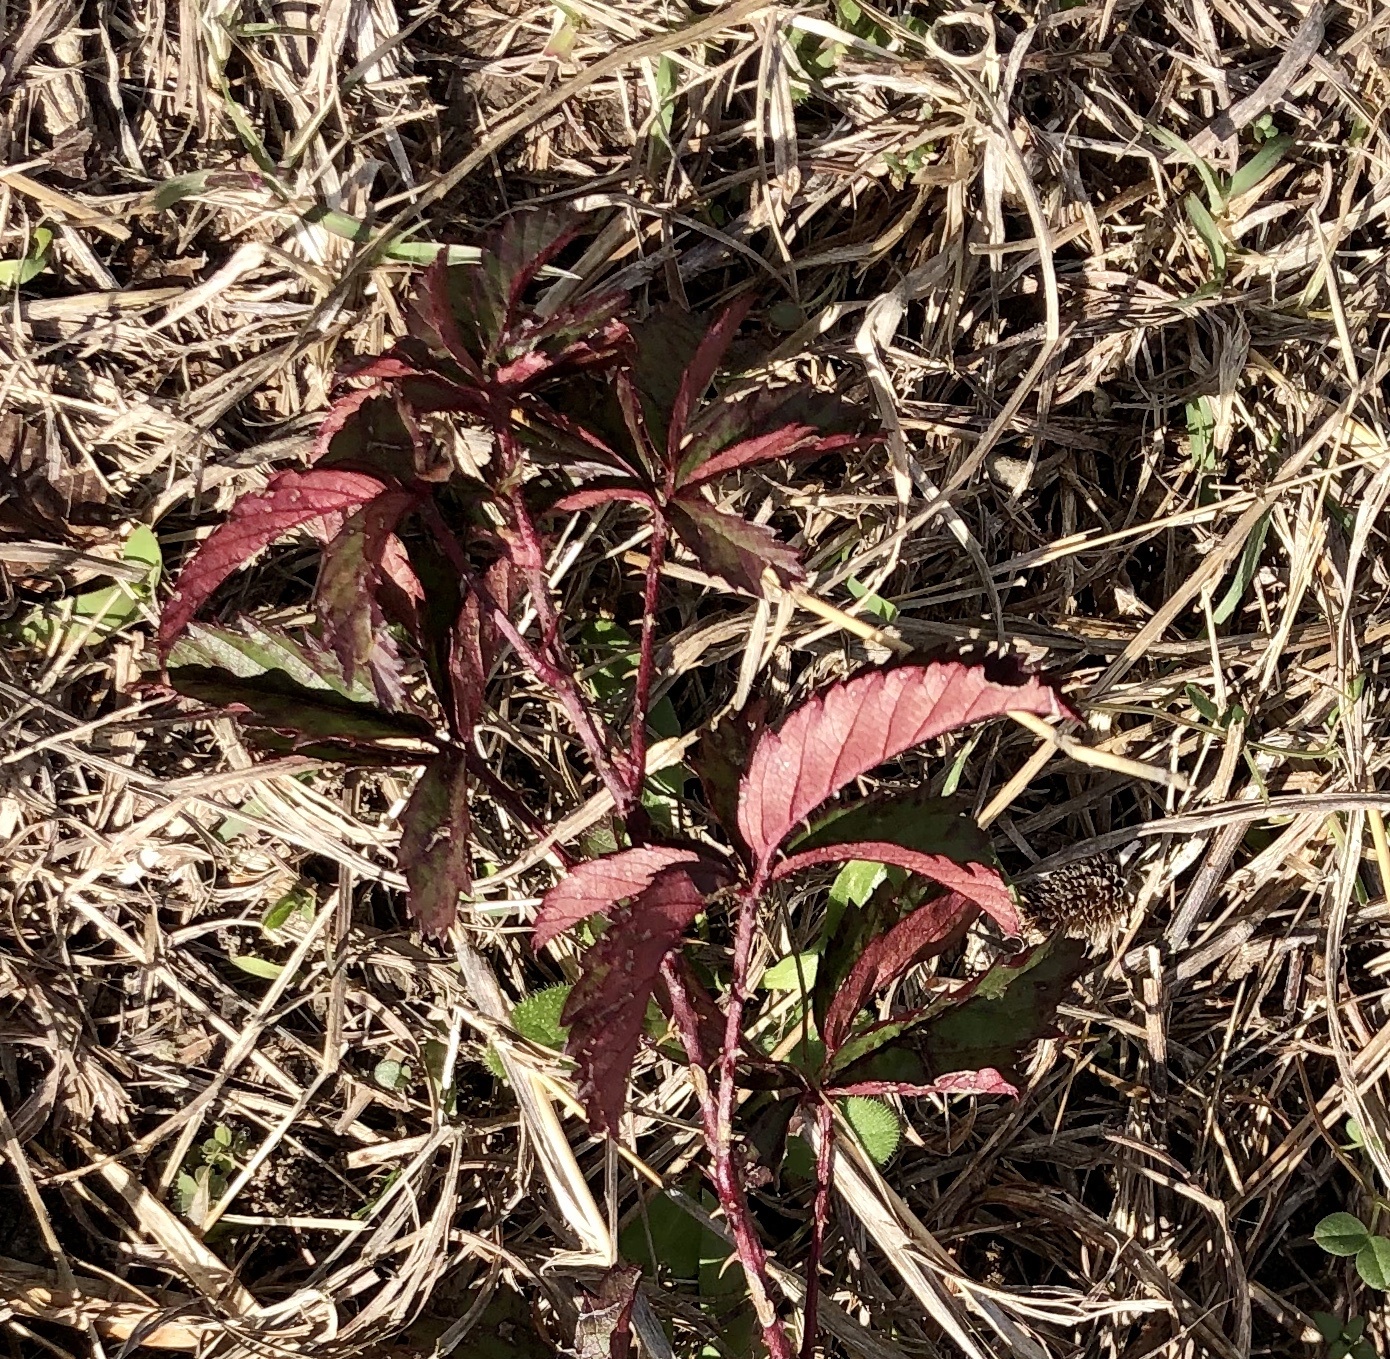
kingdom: Plantae
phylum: Tracheophyta
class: Magnoliopsida
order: Rosales
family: Rosaceae
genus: Rubus
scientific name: Rubus trivialis
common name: Southern dewberry
